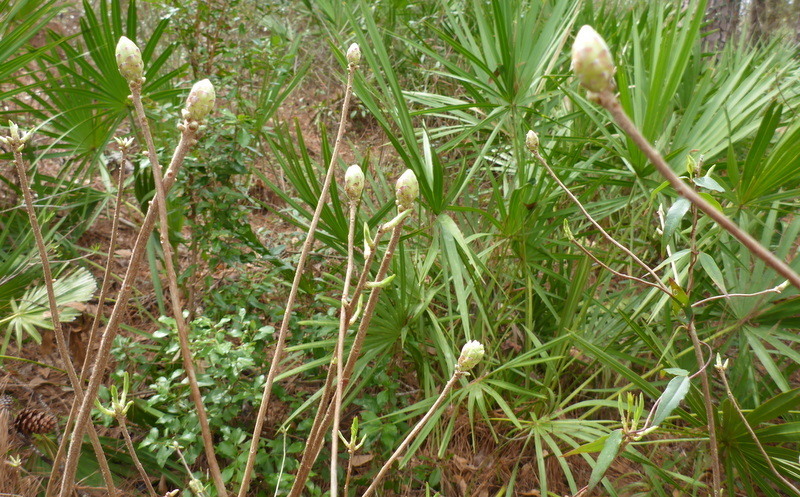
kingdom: Plantae
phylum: Tracheophyta
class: Magnoliopsida
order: Ericales
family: Ericaceae
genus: Rhododendron
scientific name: Rhododendron canescens
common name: Mountain azalea
